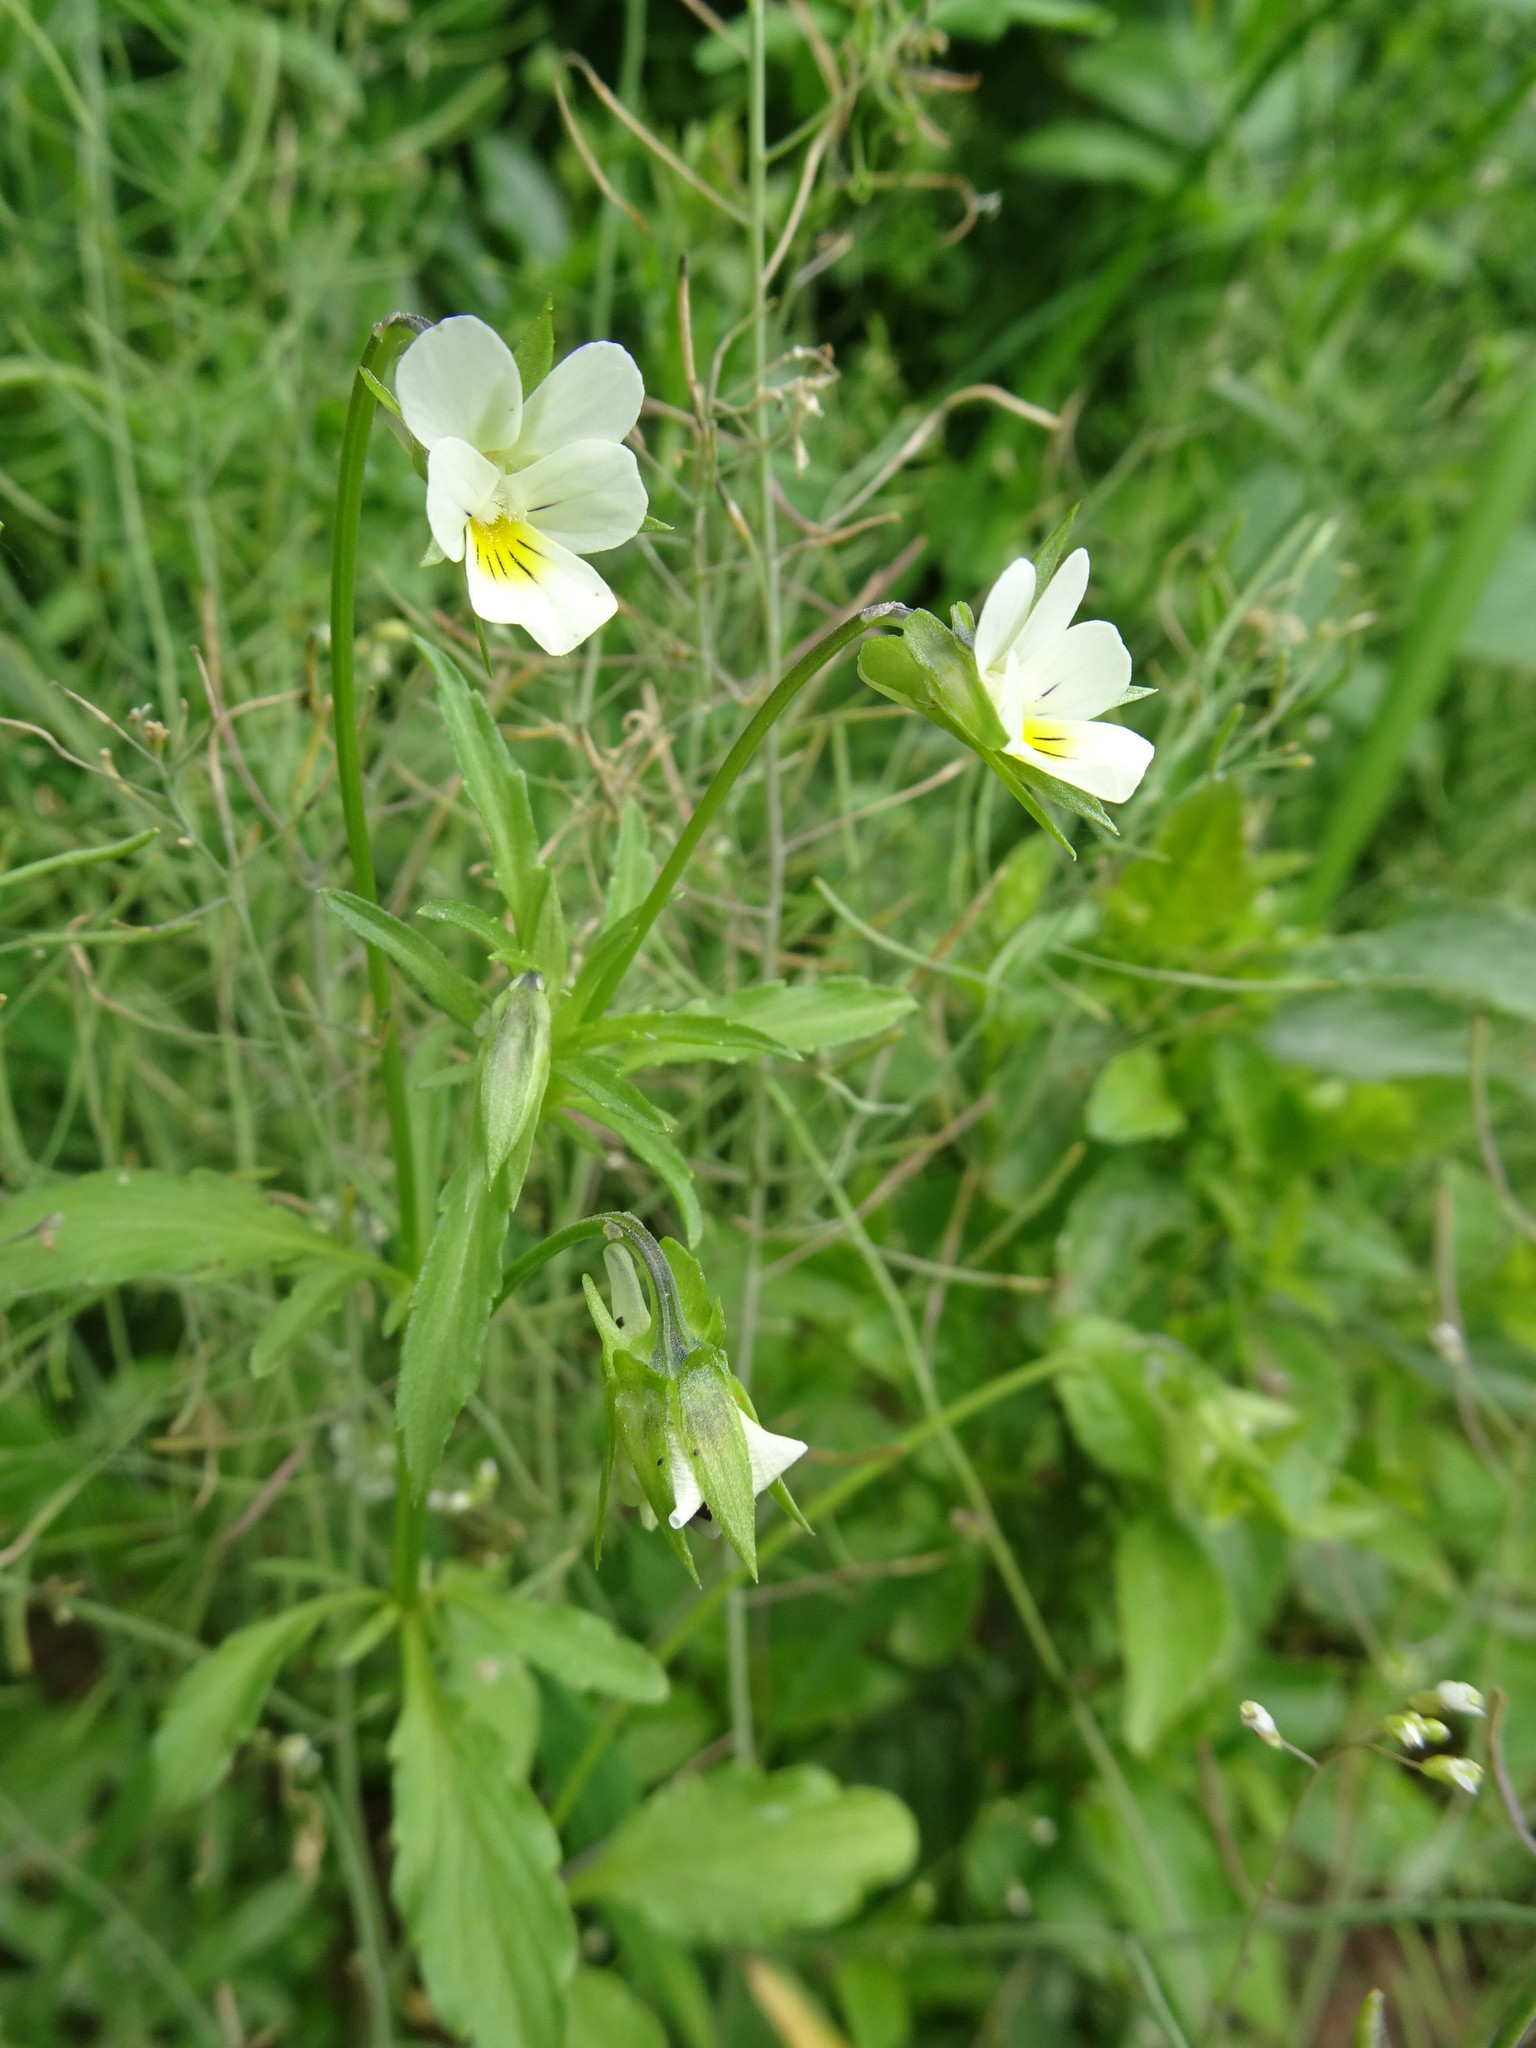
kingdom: Plantae
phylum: Tracheophyta
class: Magnoliopsida
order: Malpighiales
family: Violaceae
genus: Viola
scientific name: Viola arvensis
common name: Field pansy
